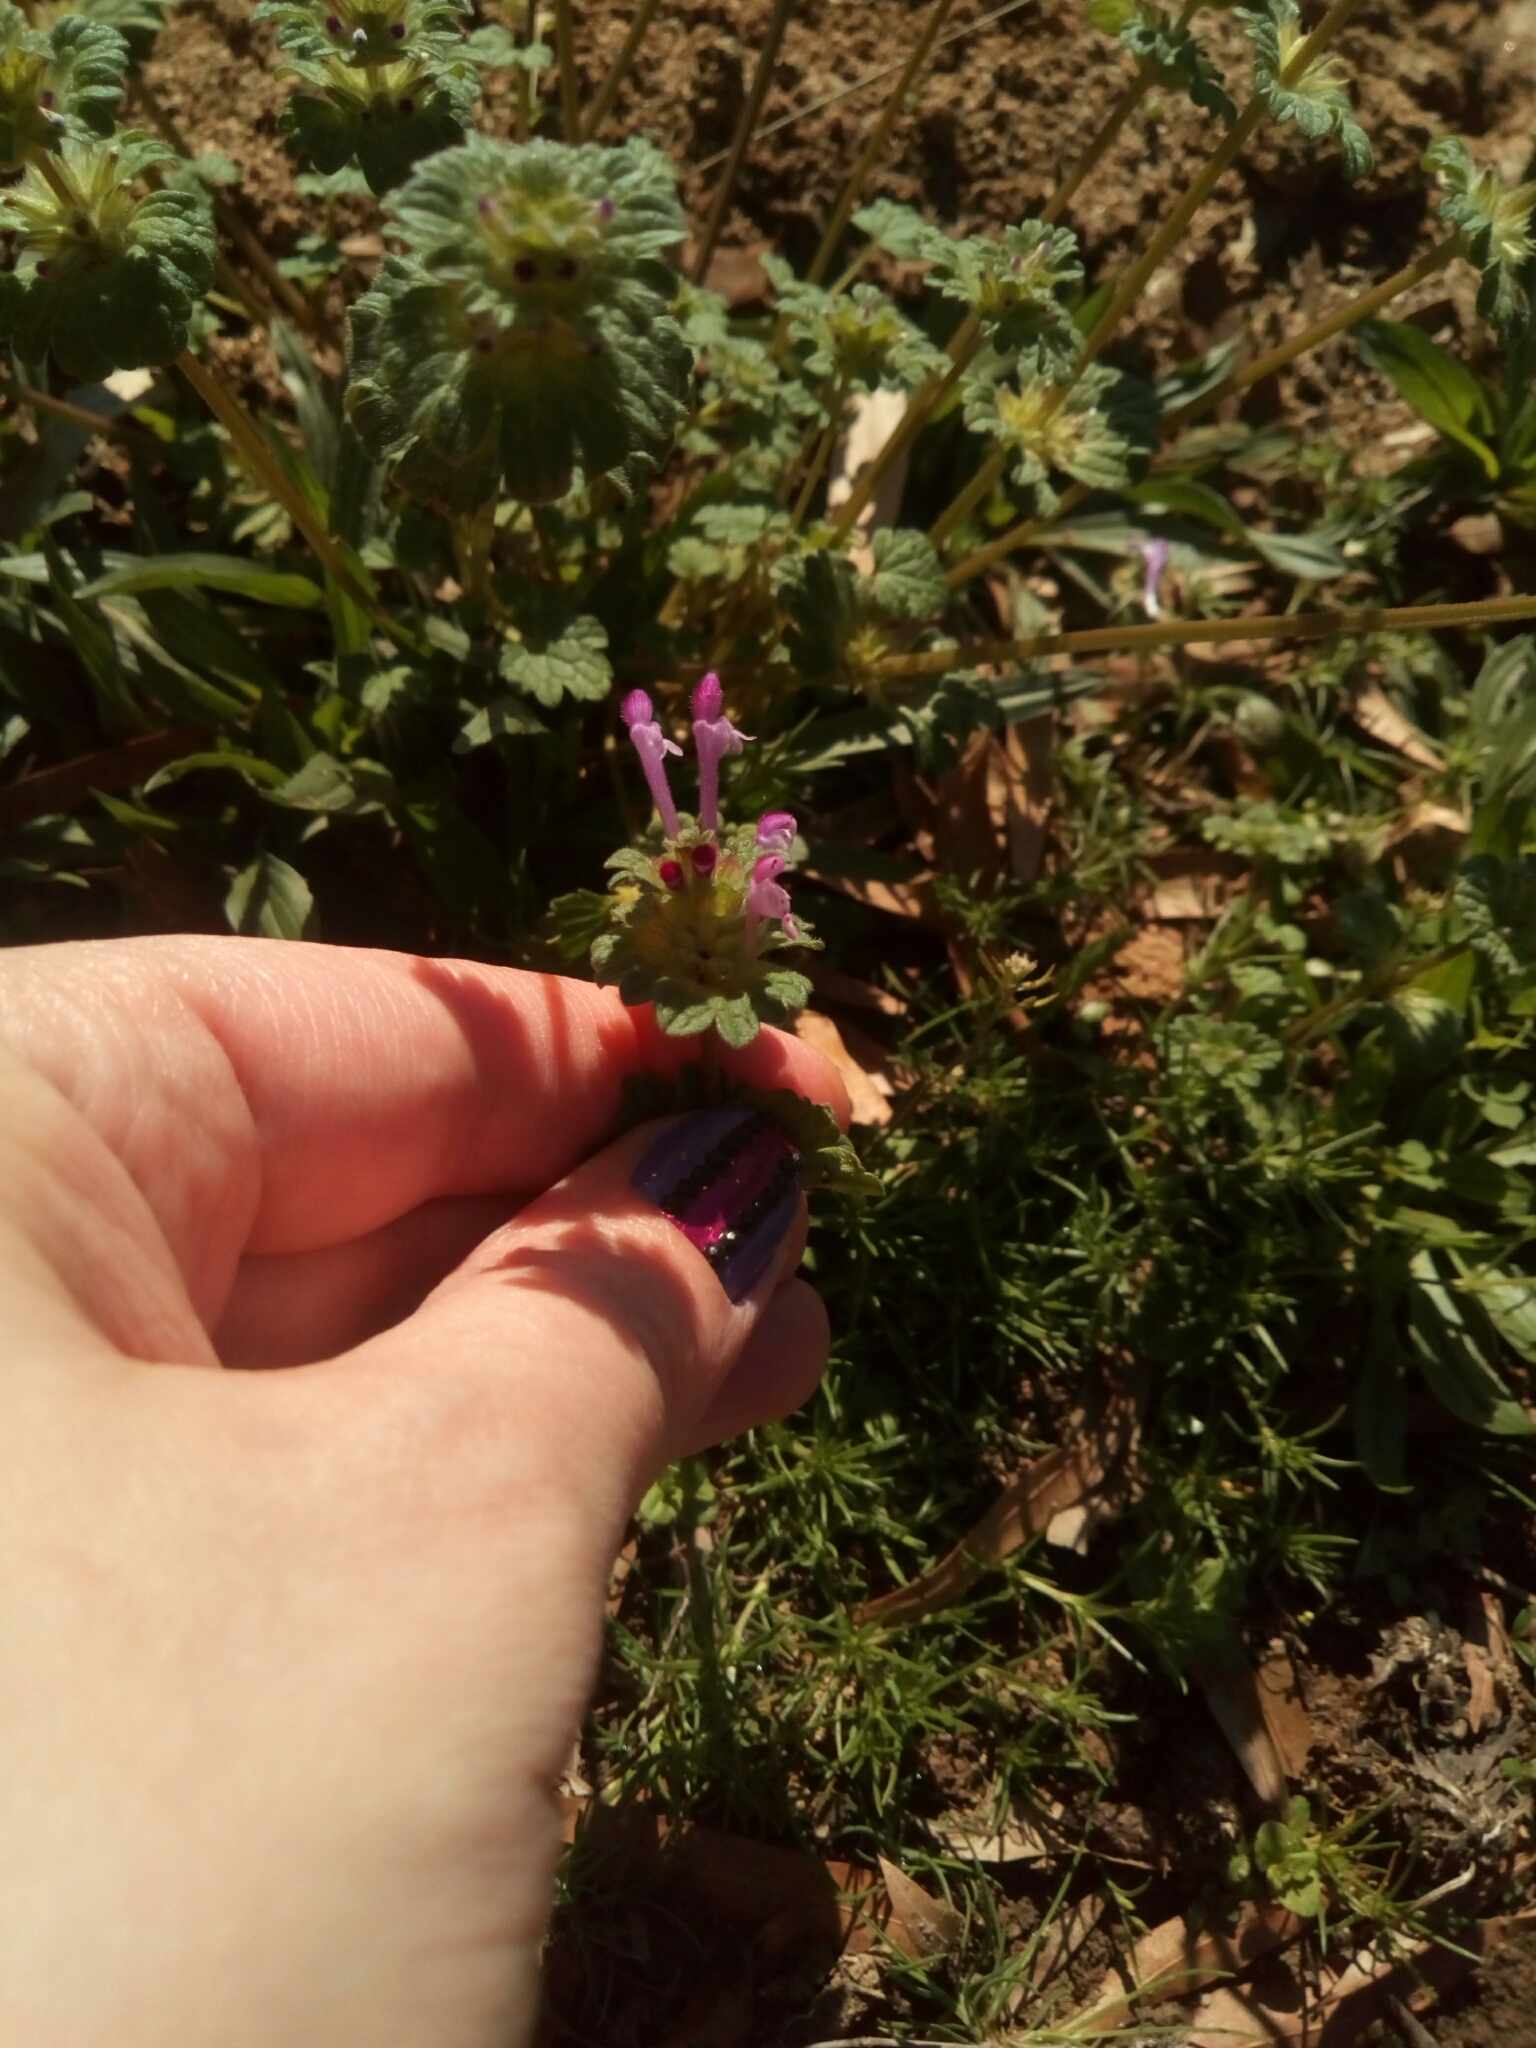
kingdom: Plantae
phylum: Tracheophyta
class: Magnoliopsida
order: Lamiales
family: Lamiaceae
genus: Lamium
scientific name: Lamium amplexicaule
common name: Henbit dead-nettle
